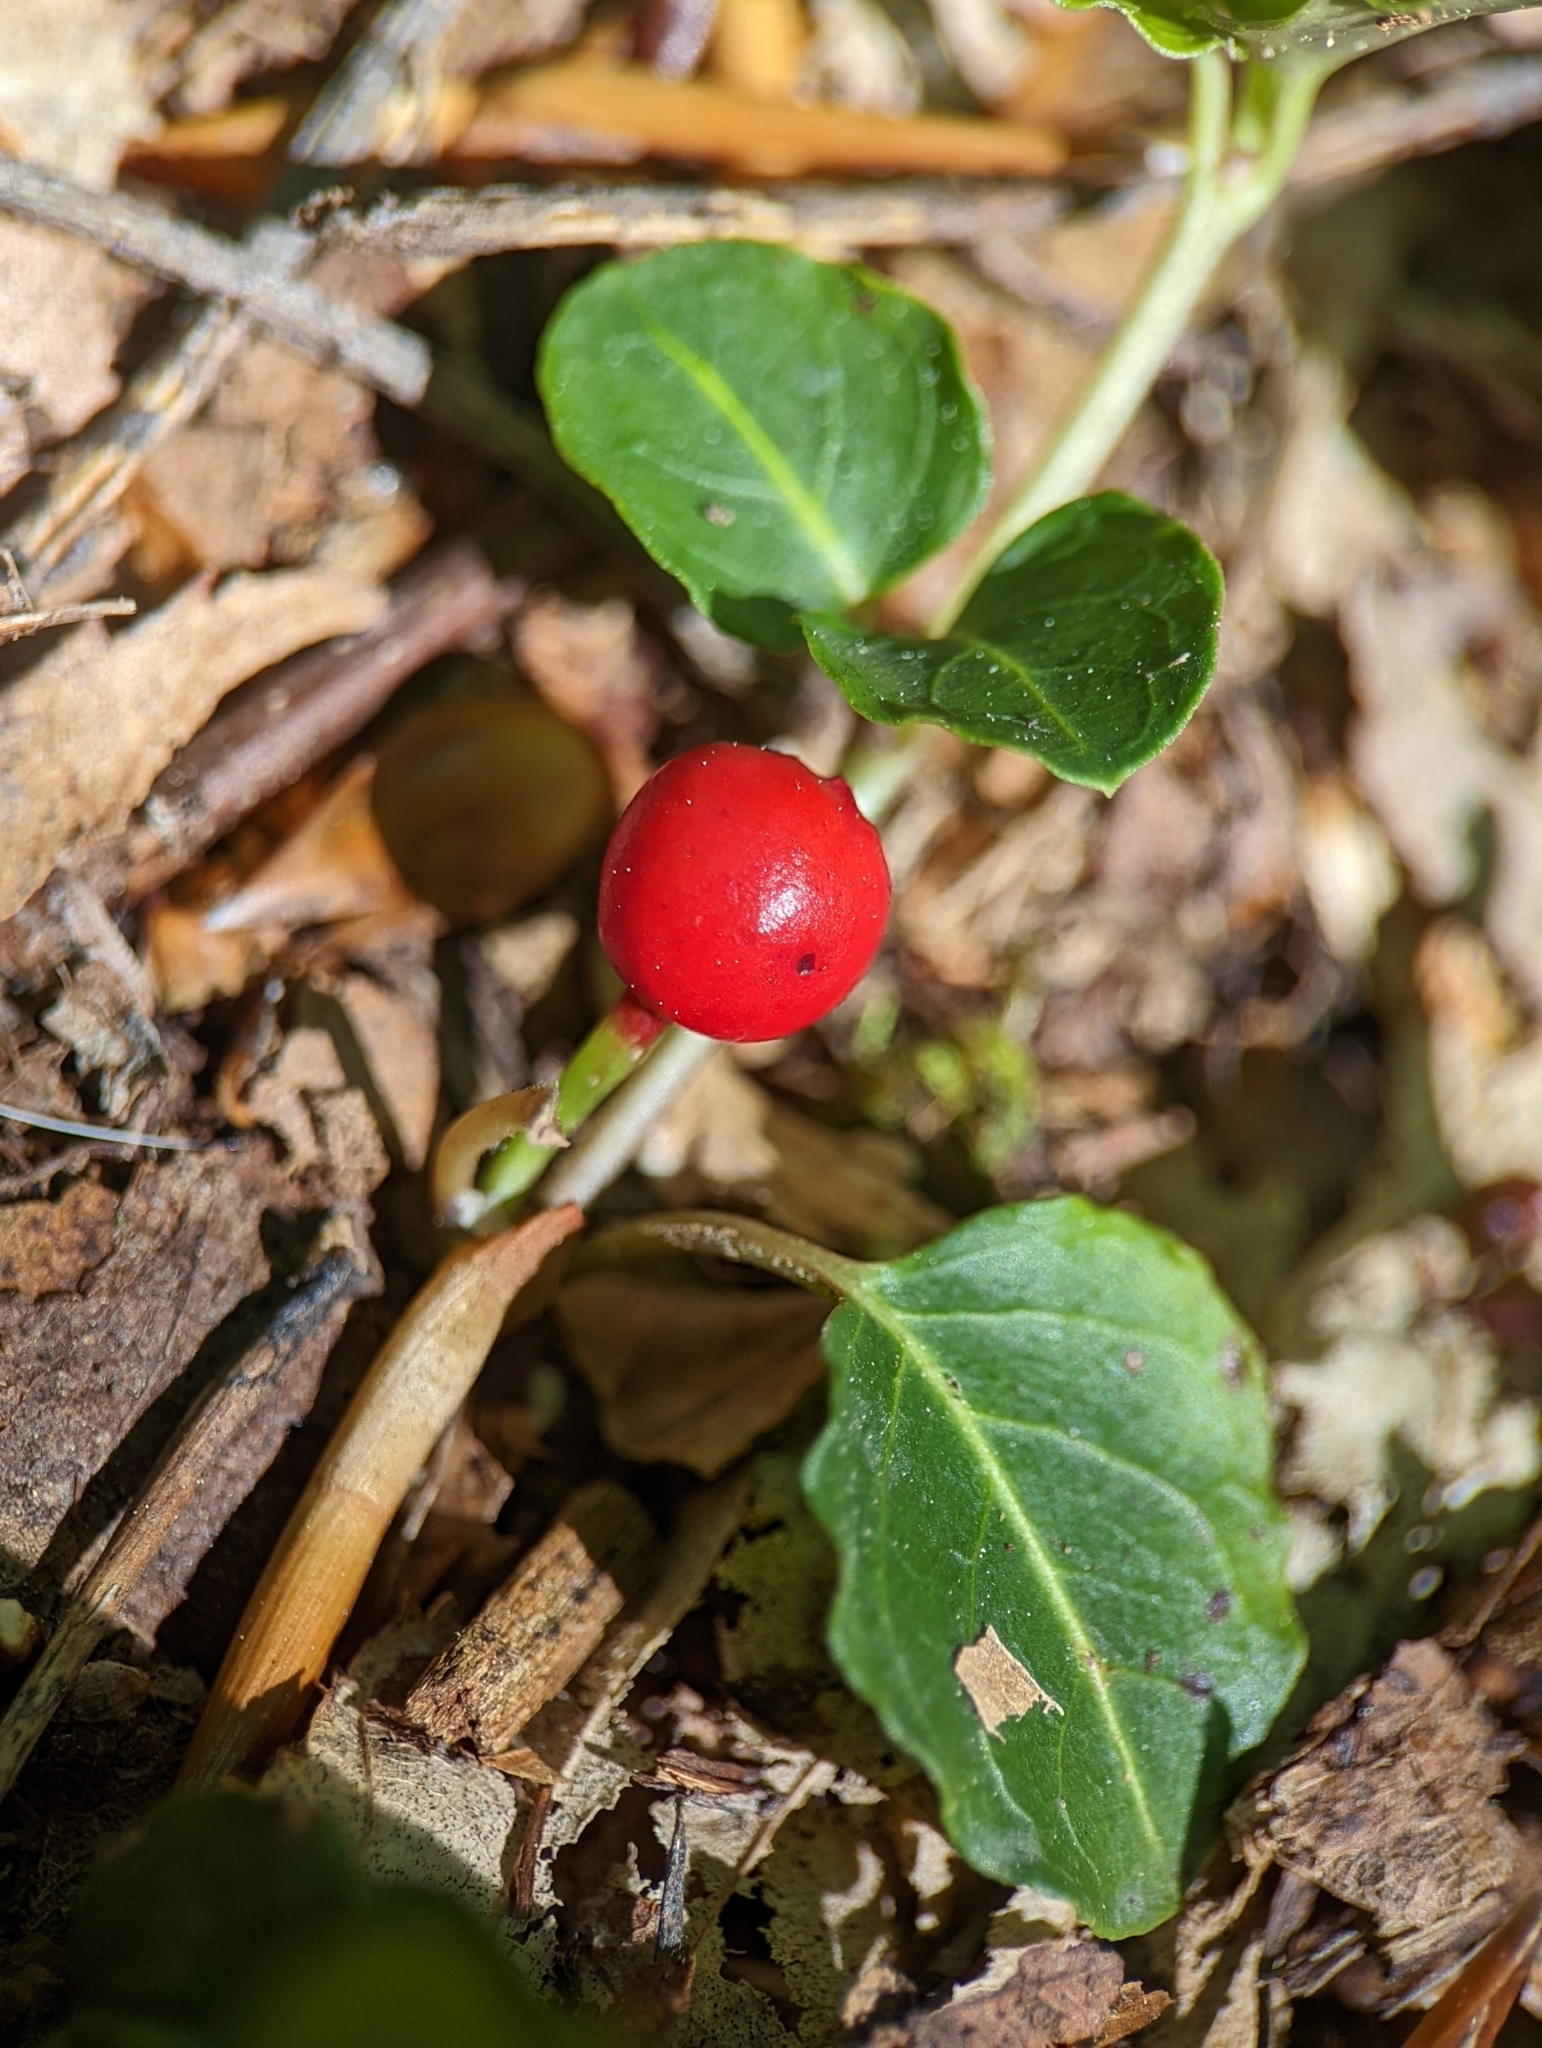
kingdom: Plantae
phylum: Tracheophyta
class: Magnoliopsida
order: Gentianales
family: Rubiaceae
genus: Mitchella
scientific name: Mitchella repens
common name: Partridge-berry
